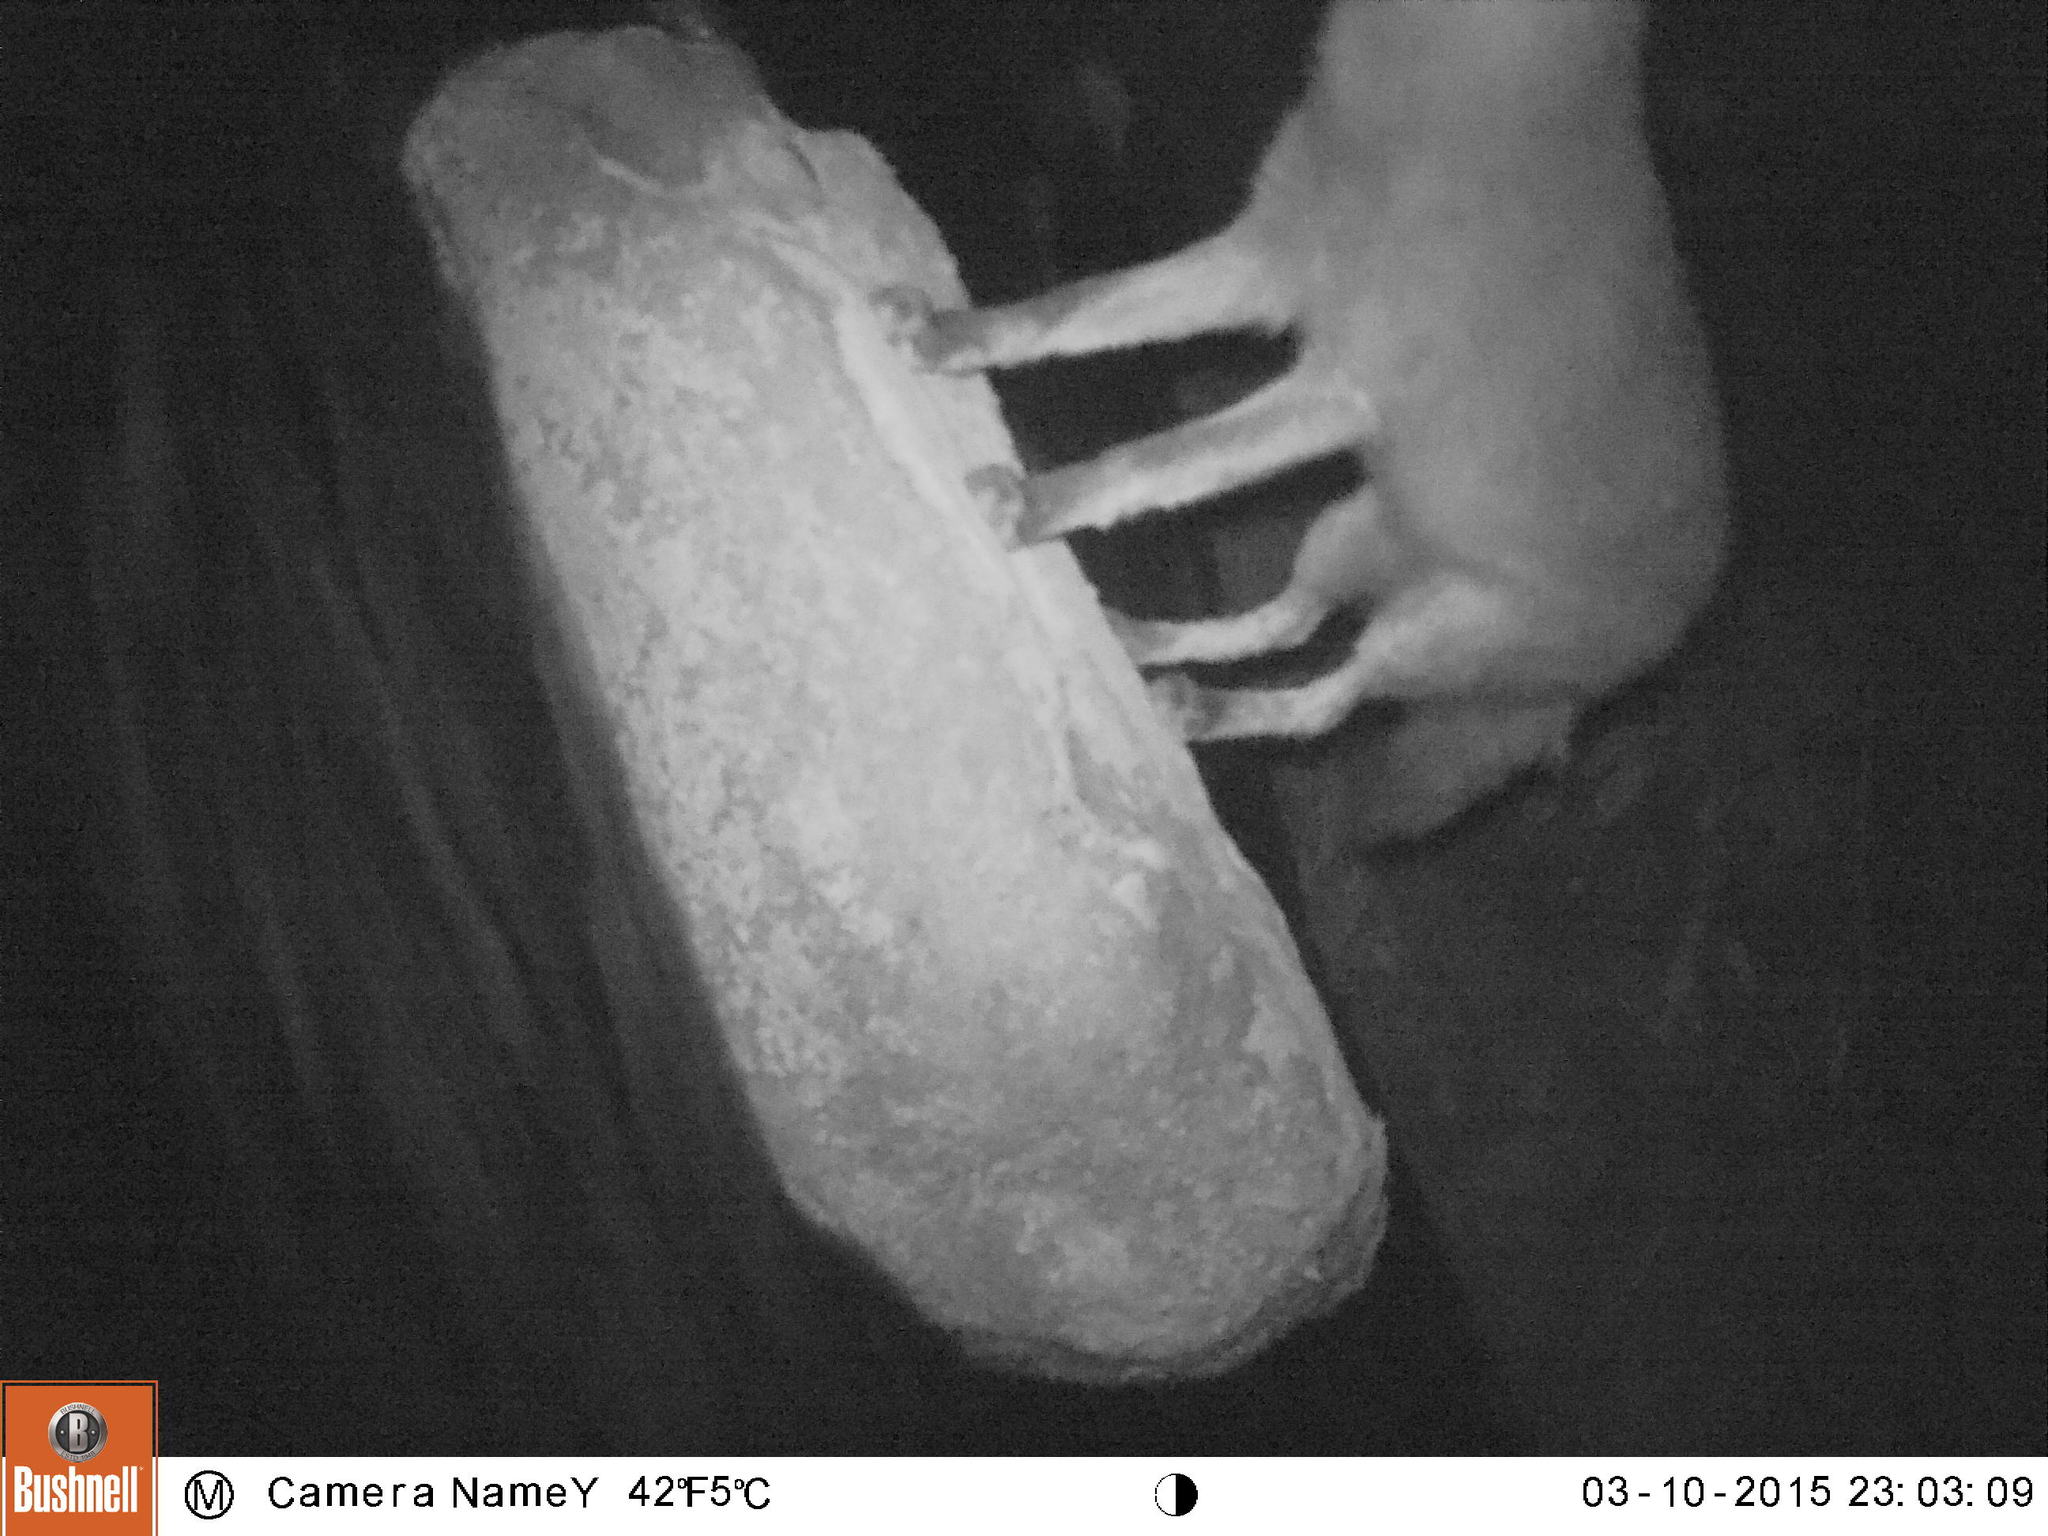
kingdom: Animalia
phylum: Chordata
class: Mammalia
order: Carnivora
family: Canidae
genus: Vulpes
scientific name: Vulpes vulpes
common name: Red fox
